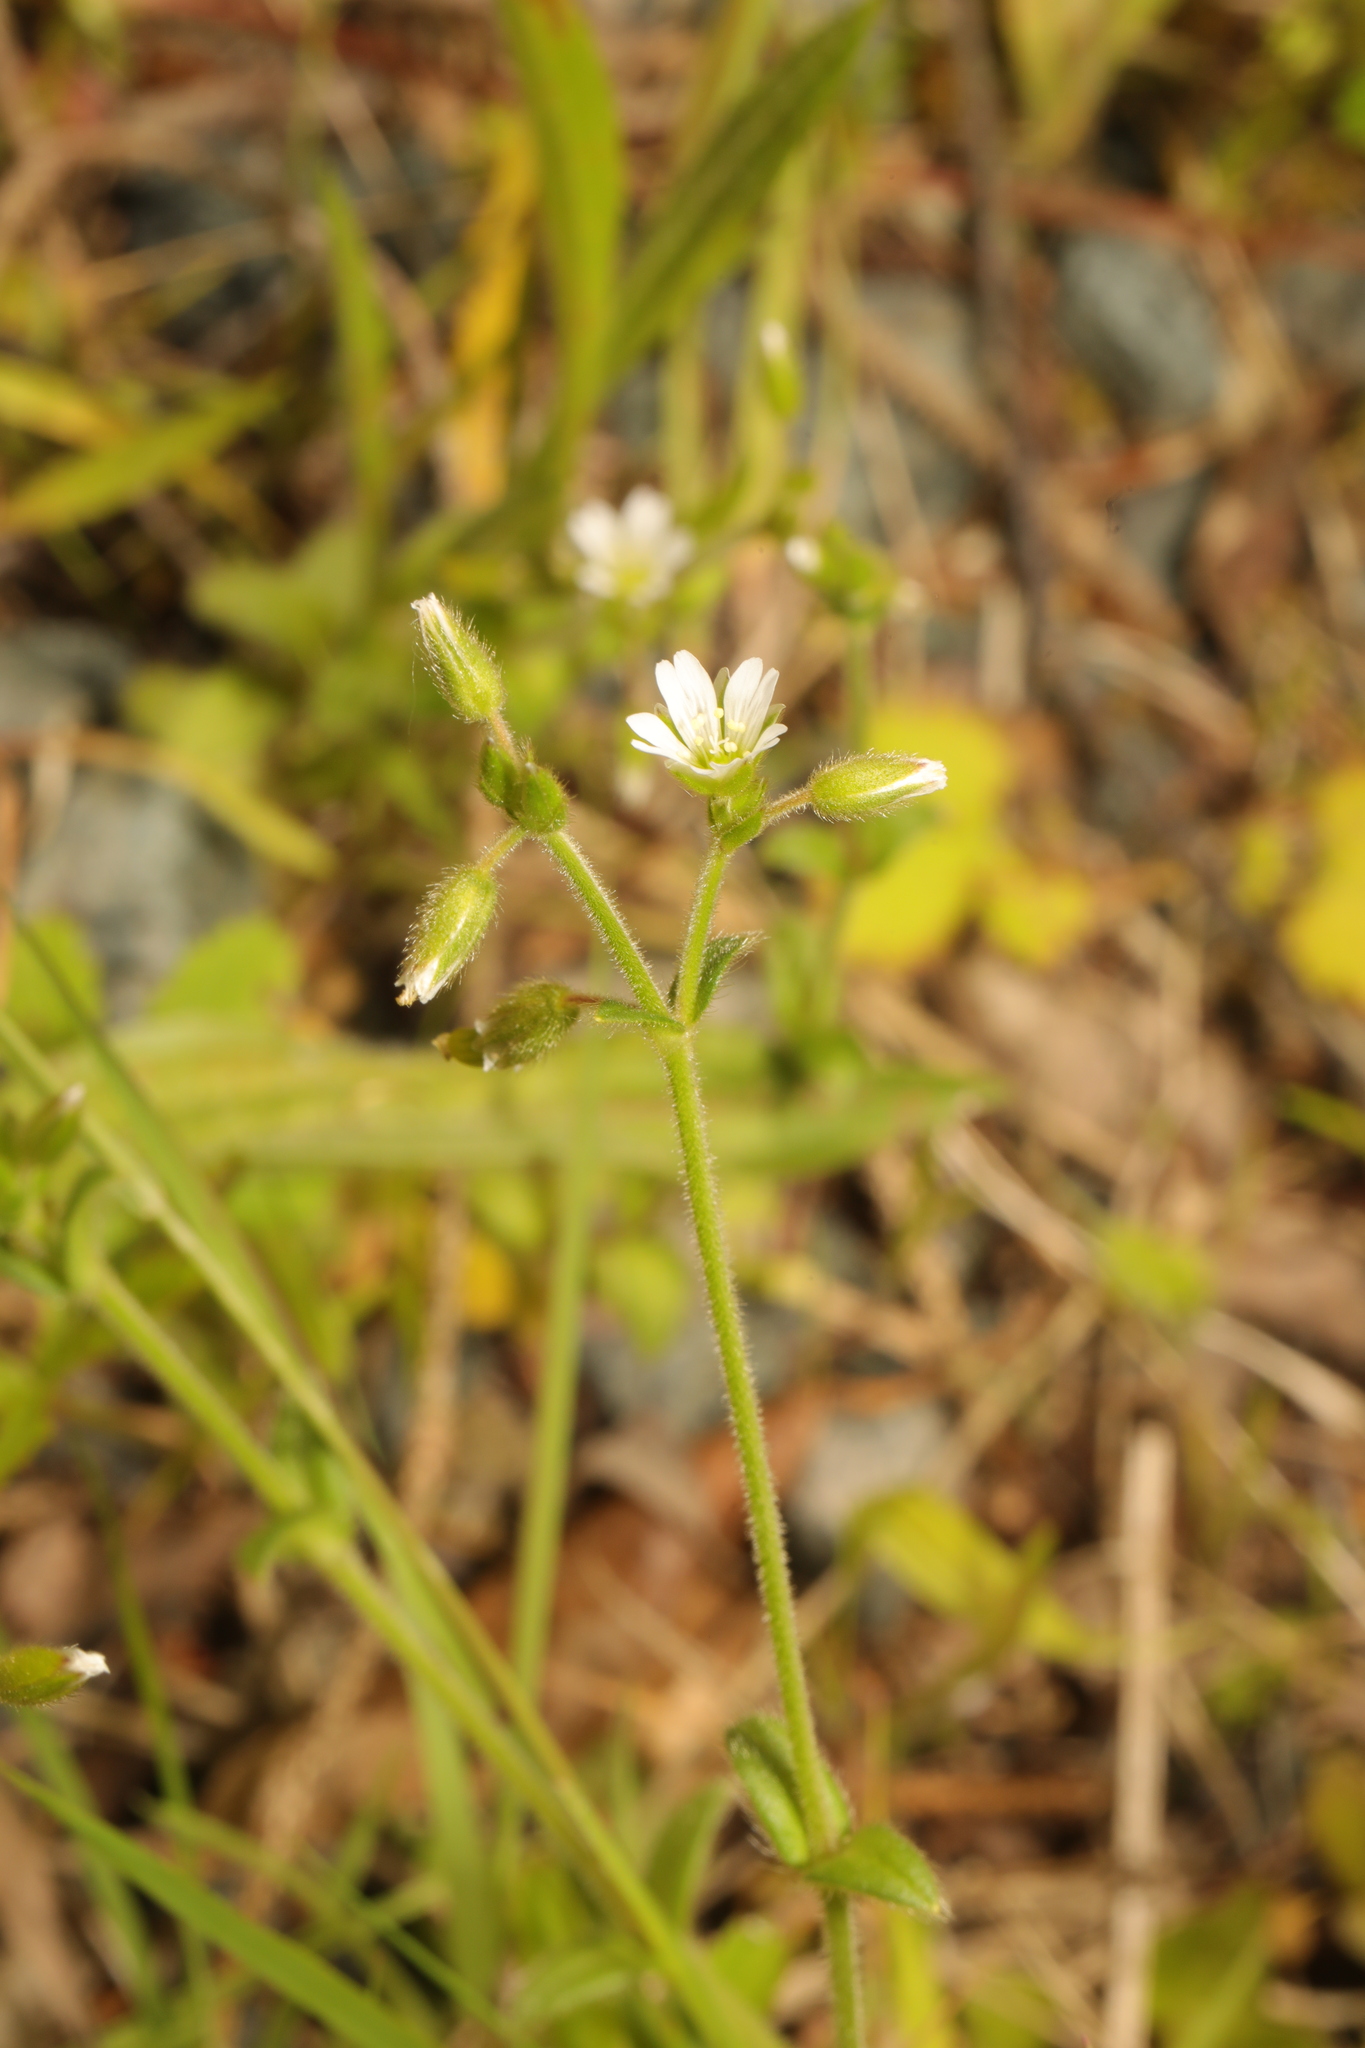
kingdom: Plantae
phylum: Tracheophyta
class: Magnoliopsida
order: Caryophyllales
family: Caryophyllaceae
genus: Cerastium
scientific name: Cerastium fontanum
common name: Common mouse-ear
